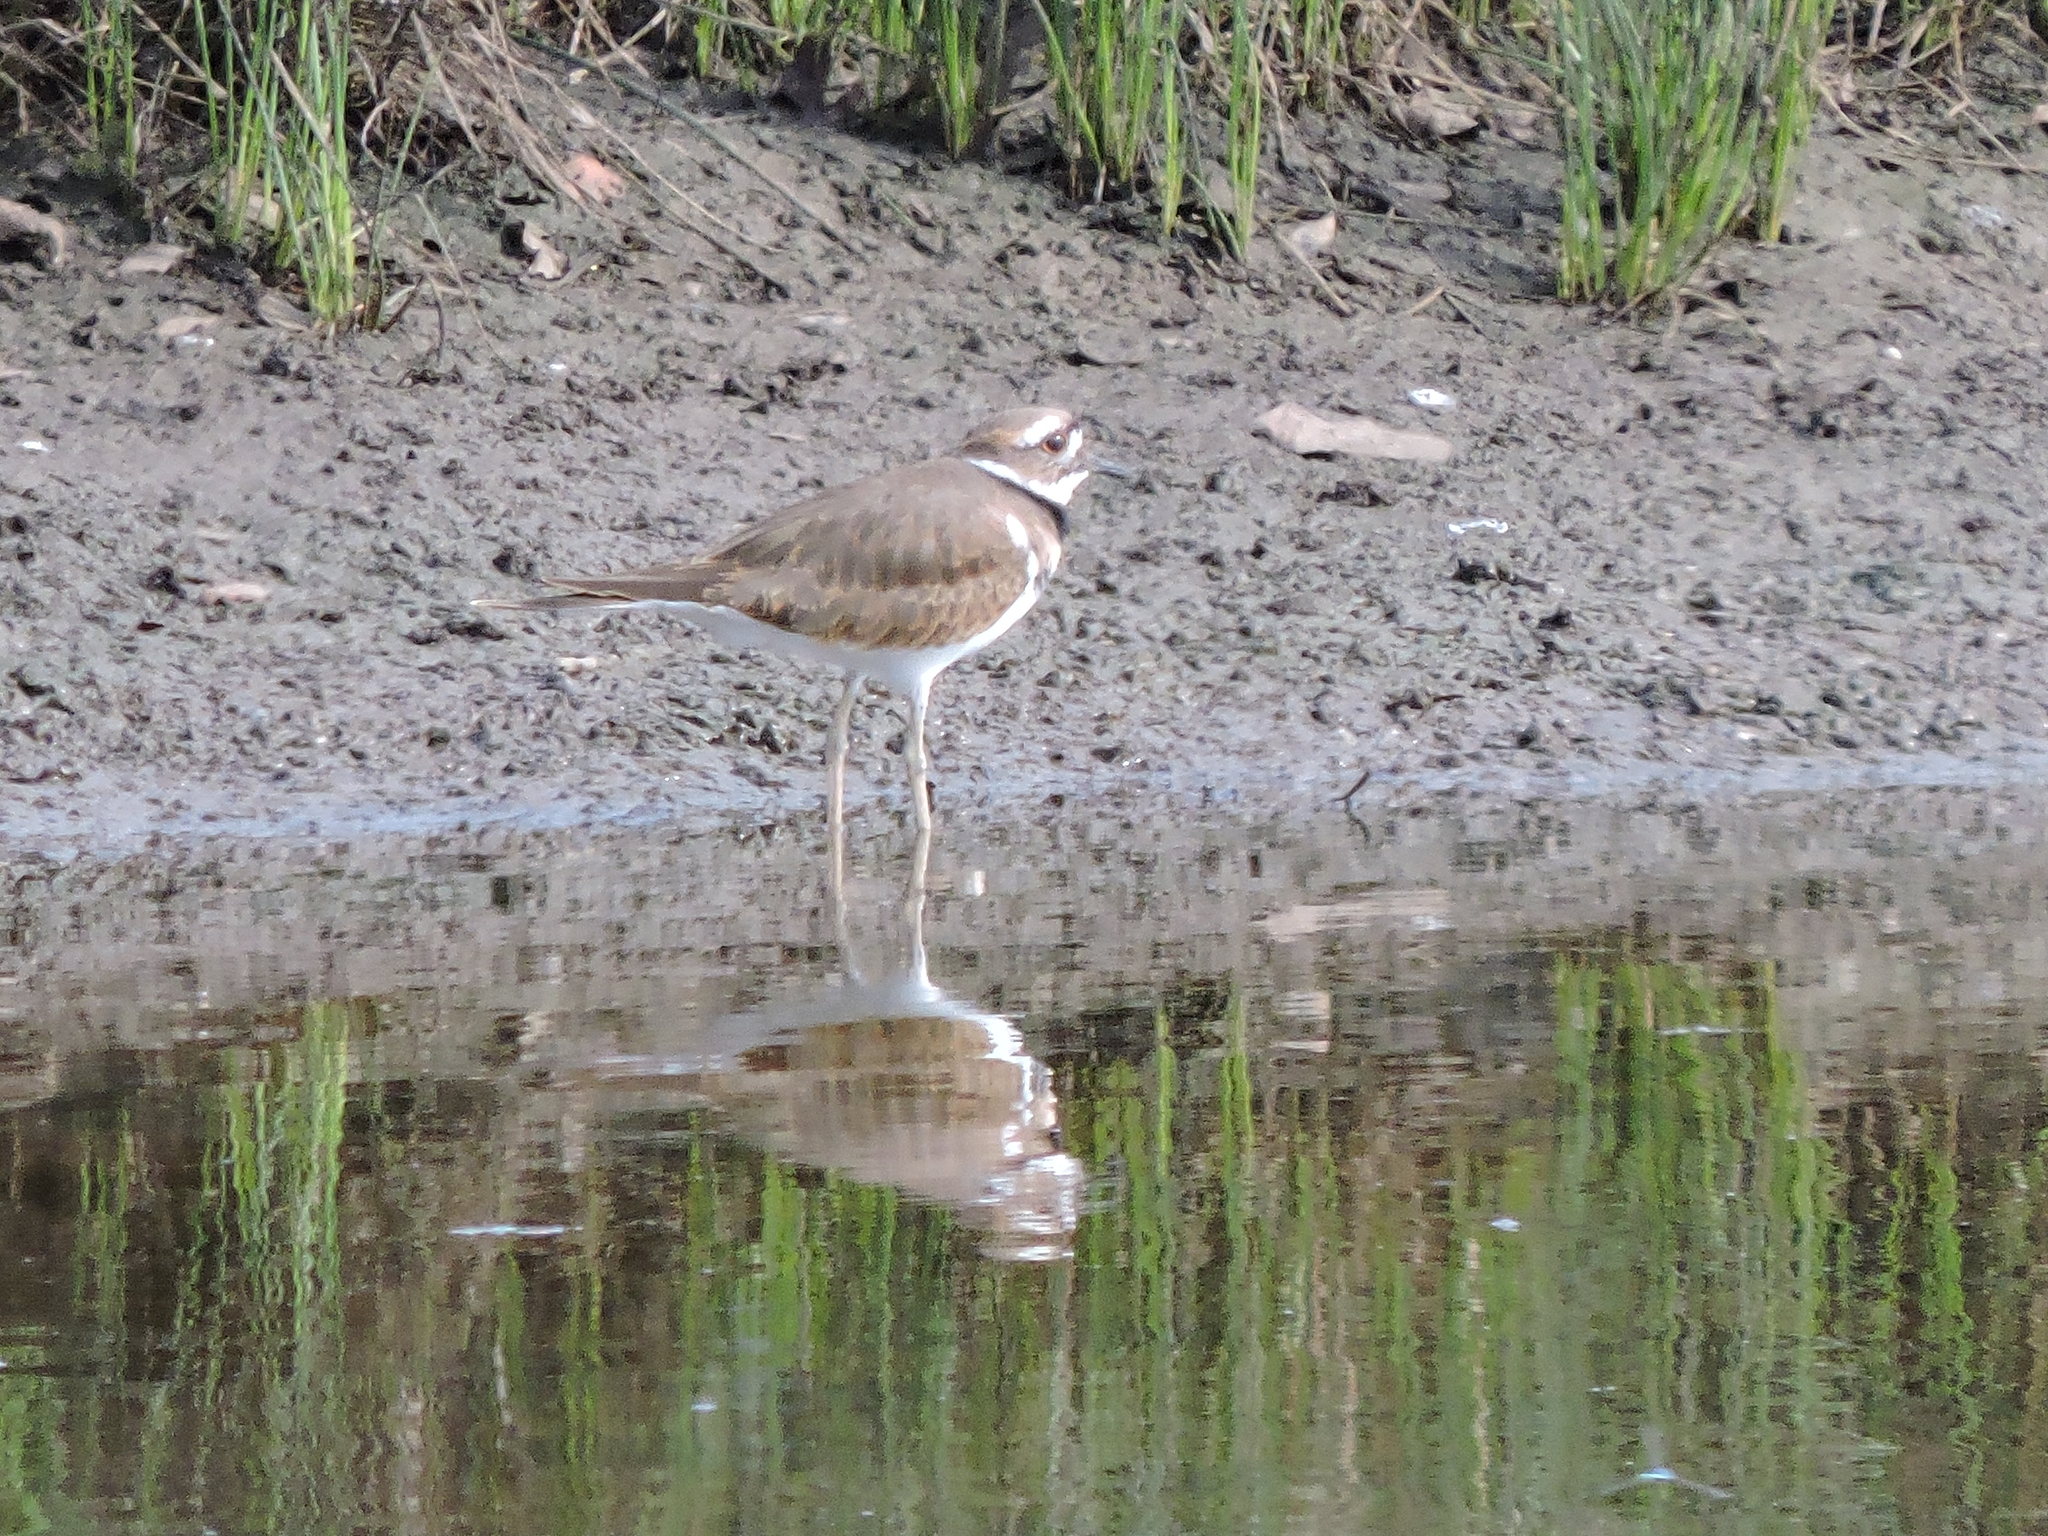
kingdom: Animalia
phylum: Chordata
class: Aves
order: Charadriiformes
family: Charadriidae
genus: Charadrius
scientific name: Charadrius vociferus
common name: Killdeer
